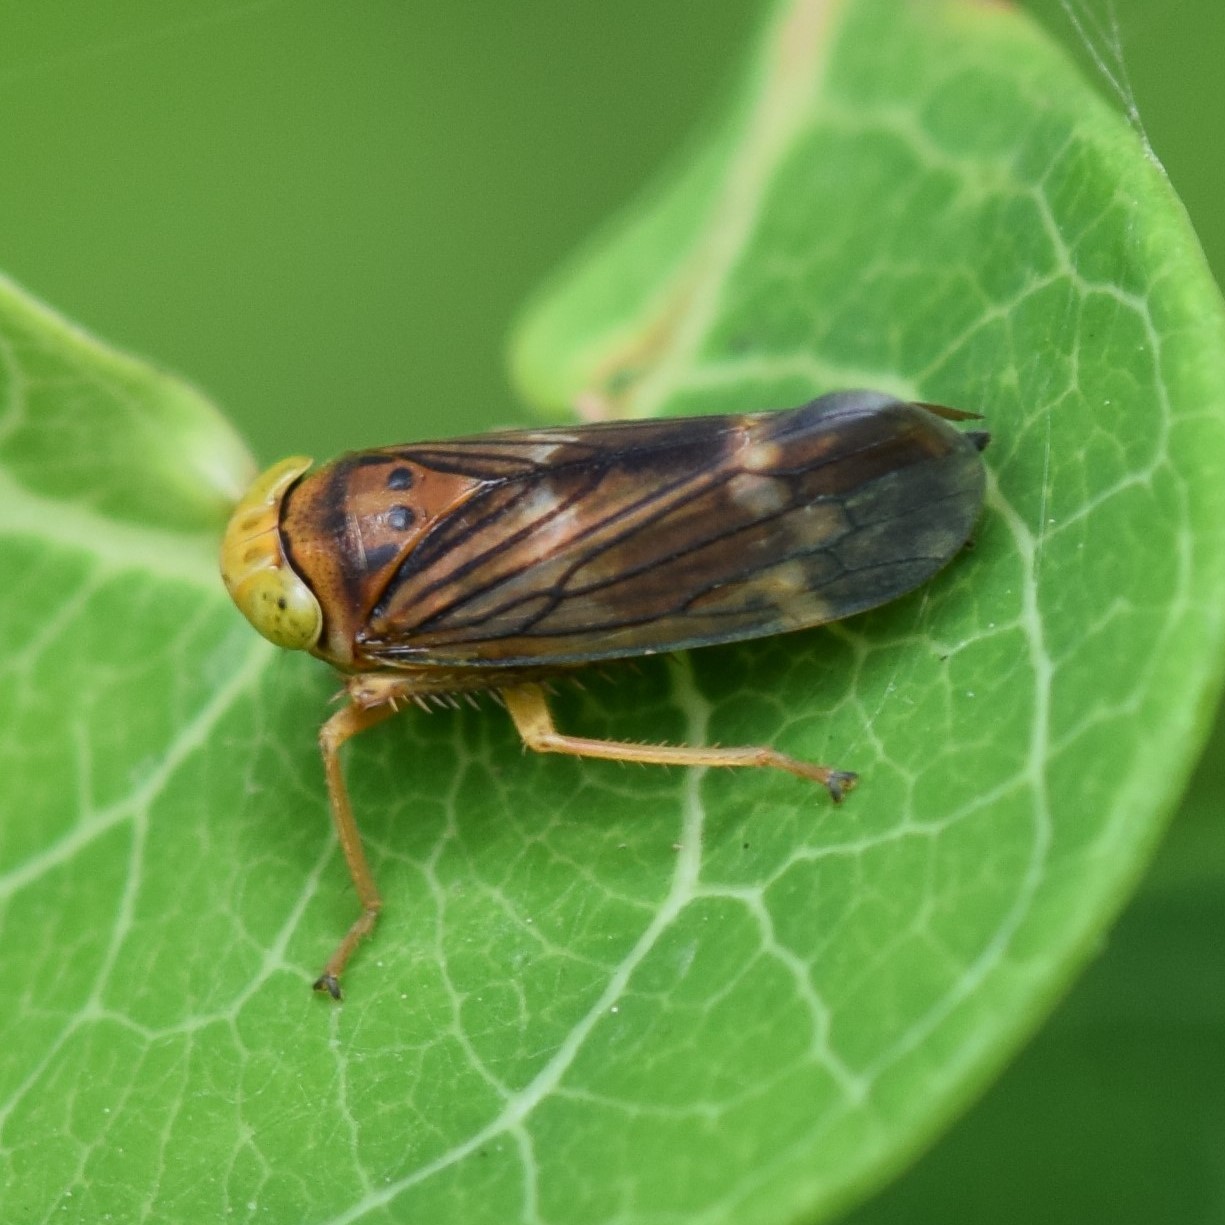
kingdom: Animalia
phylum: Arthropoda
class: Insecta
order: Hemiptera
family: Cicadellidae
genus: Jikradia
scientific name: Jikradia olitoria
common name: Coppery leafhopper
